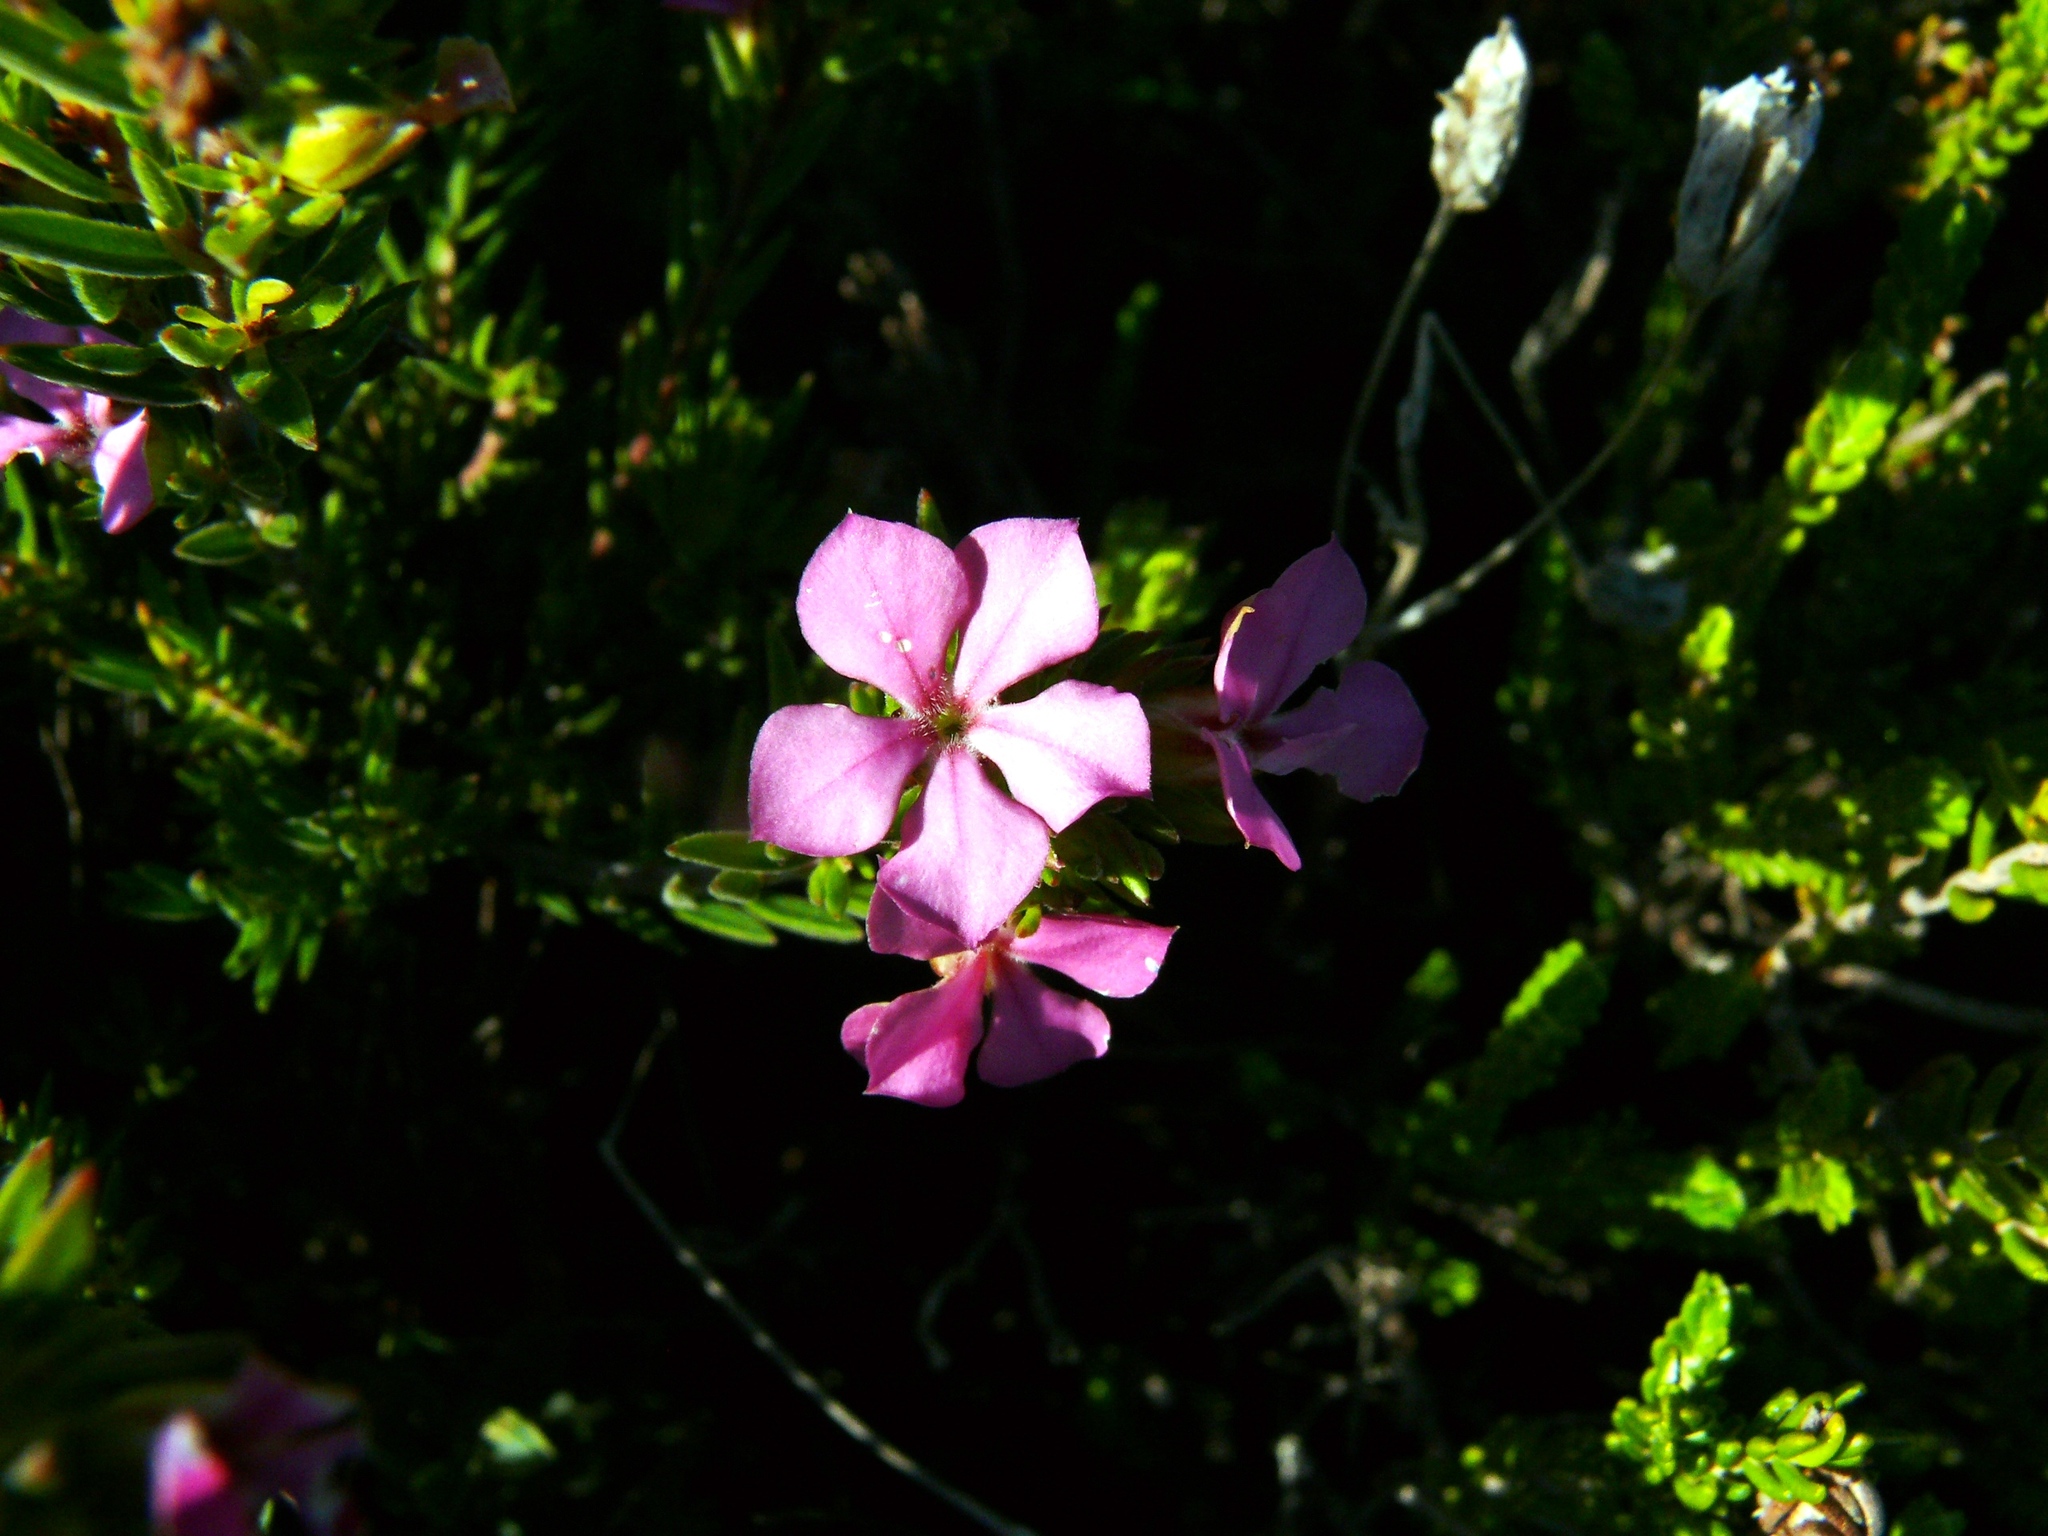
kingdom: Plantae
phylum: Tracheophyta
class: Magnoliopsida
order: Sapindales
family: Rutaceae
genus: Acmadenia
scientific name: Acmadenia obtusata
